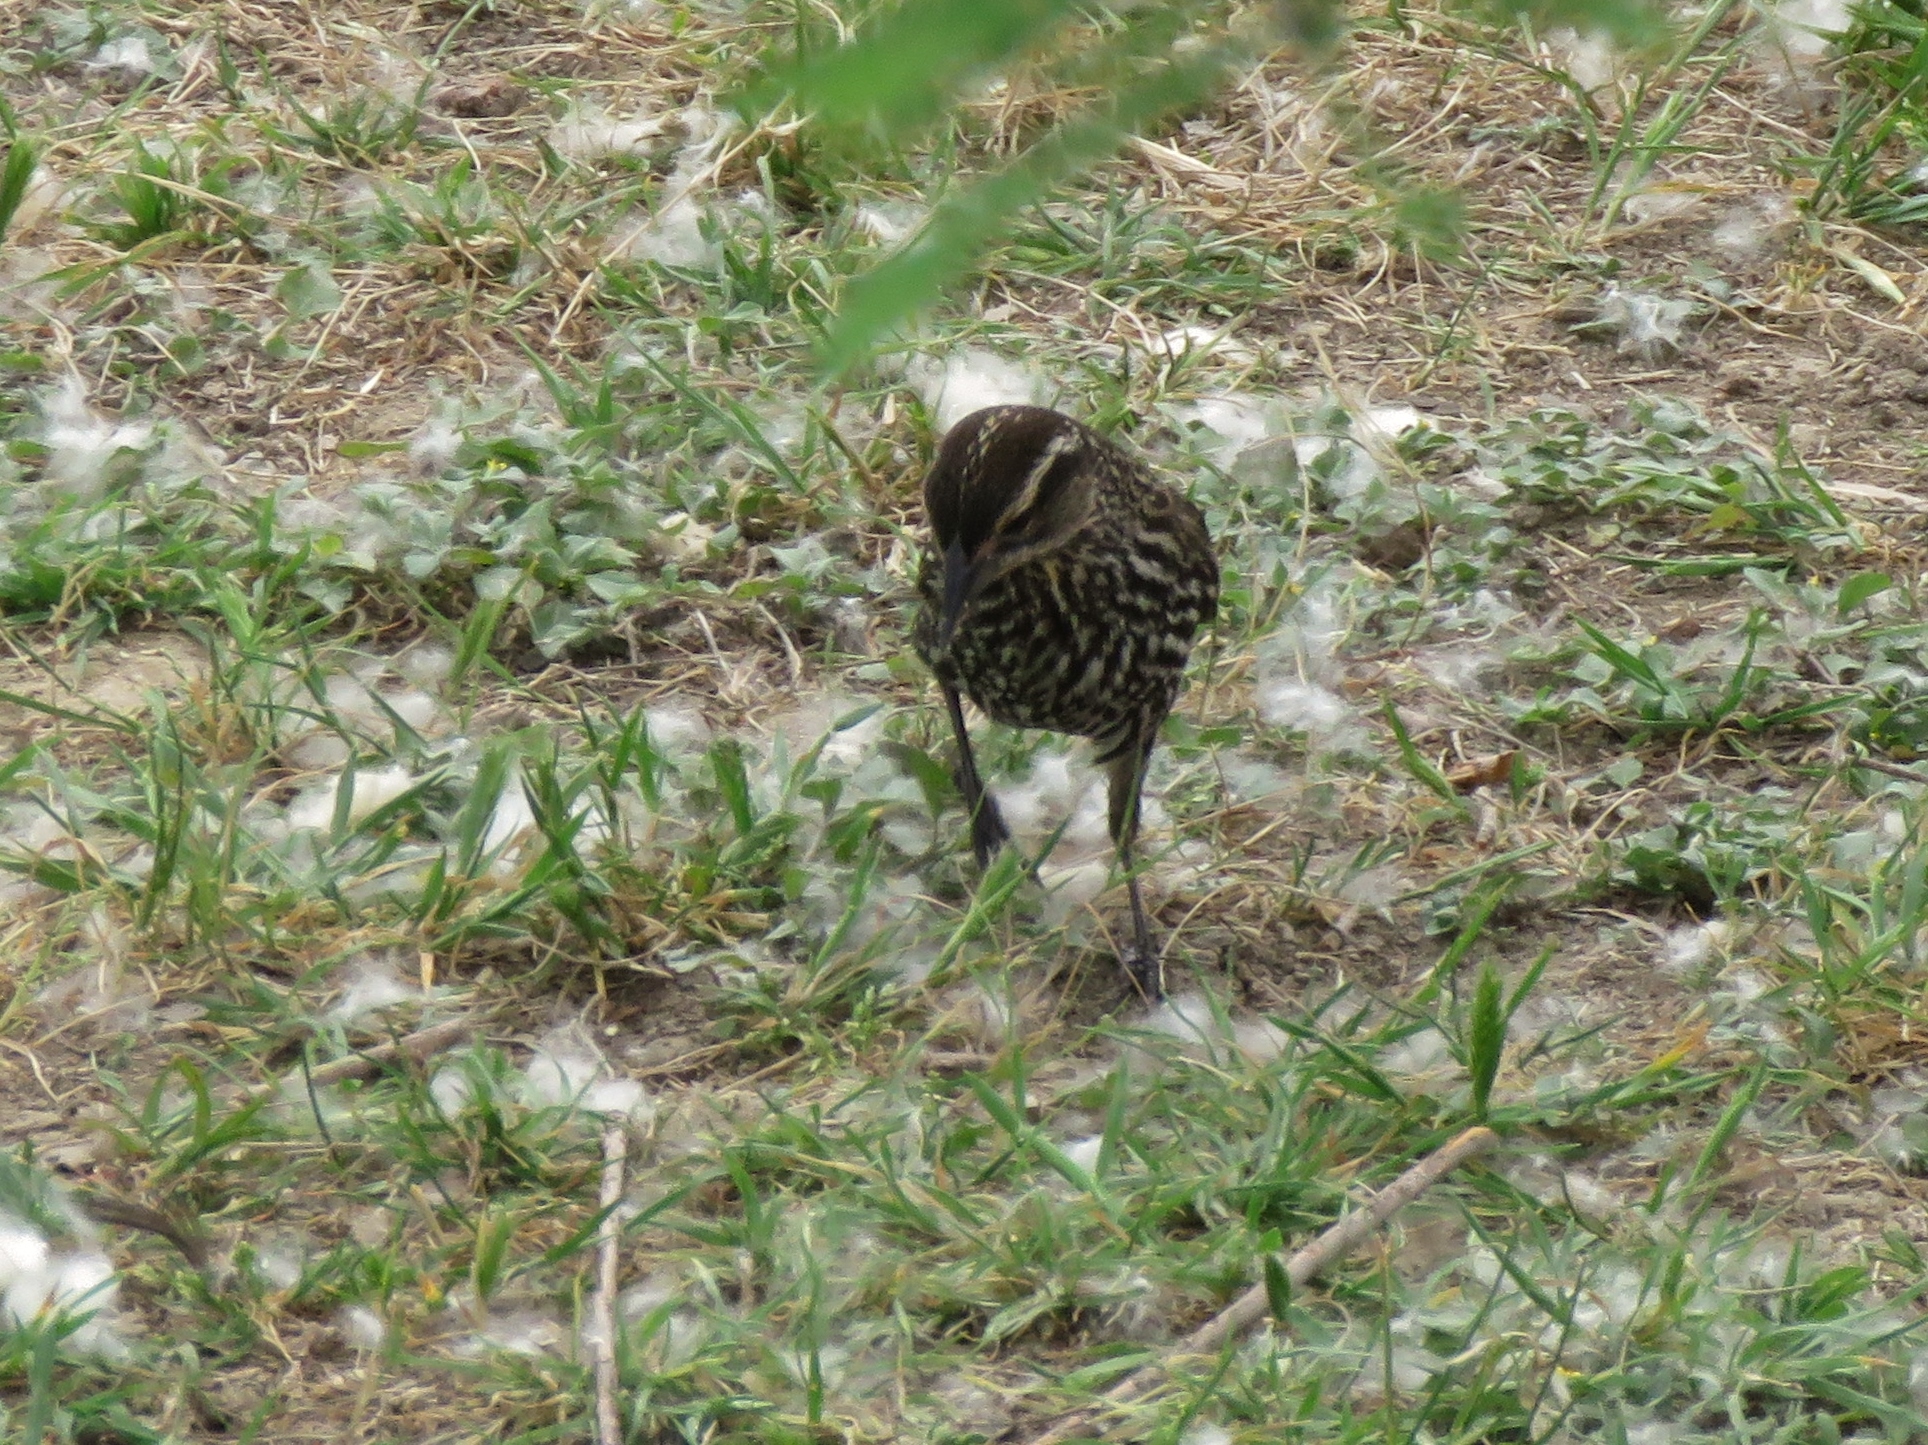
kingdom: Animalia
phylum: Chordata
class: Aves
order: Passeriformes
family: Icteridae
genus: Agelaius
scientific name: Agelaius phoeniceus
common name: Red-winged blackbird
